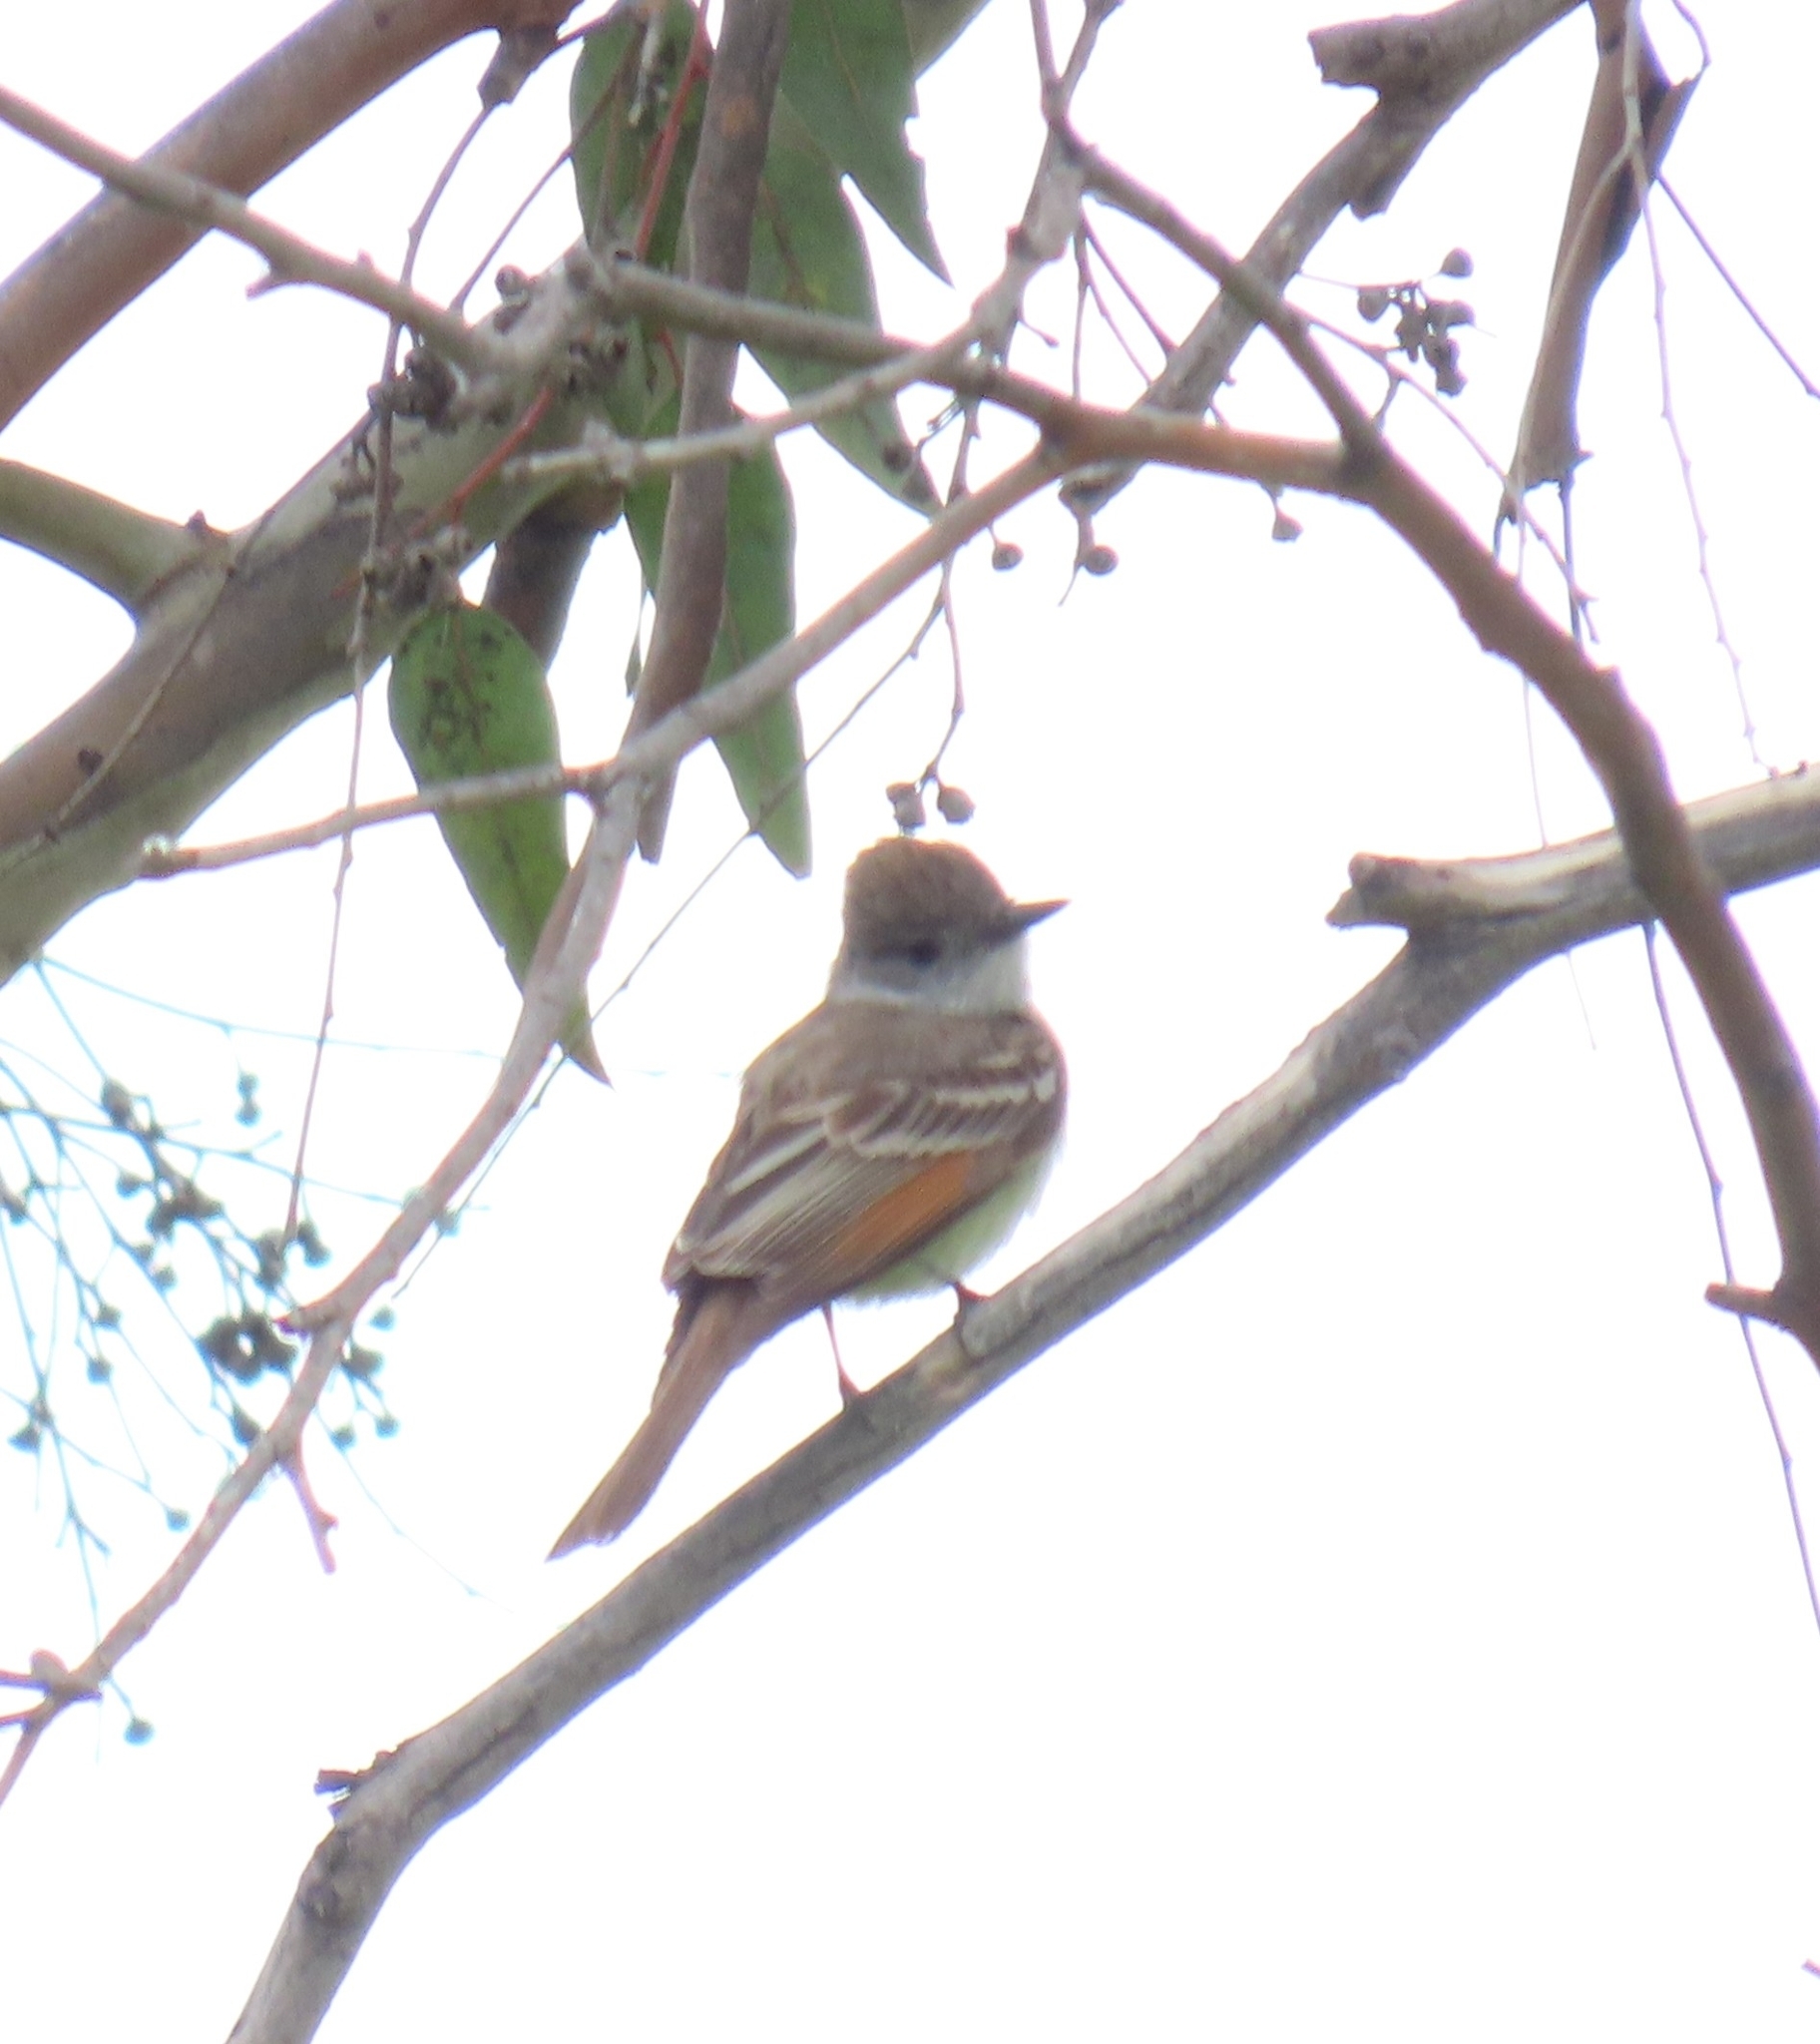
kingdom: Animalia
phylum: Chordata
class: Aves
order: Passeriformes
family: Tyrannidae
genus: Myiarchus
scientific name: Myiarchus cinerascens
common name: Ash-throated flycatcher
